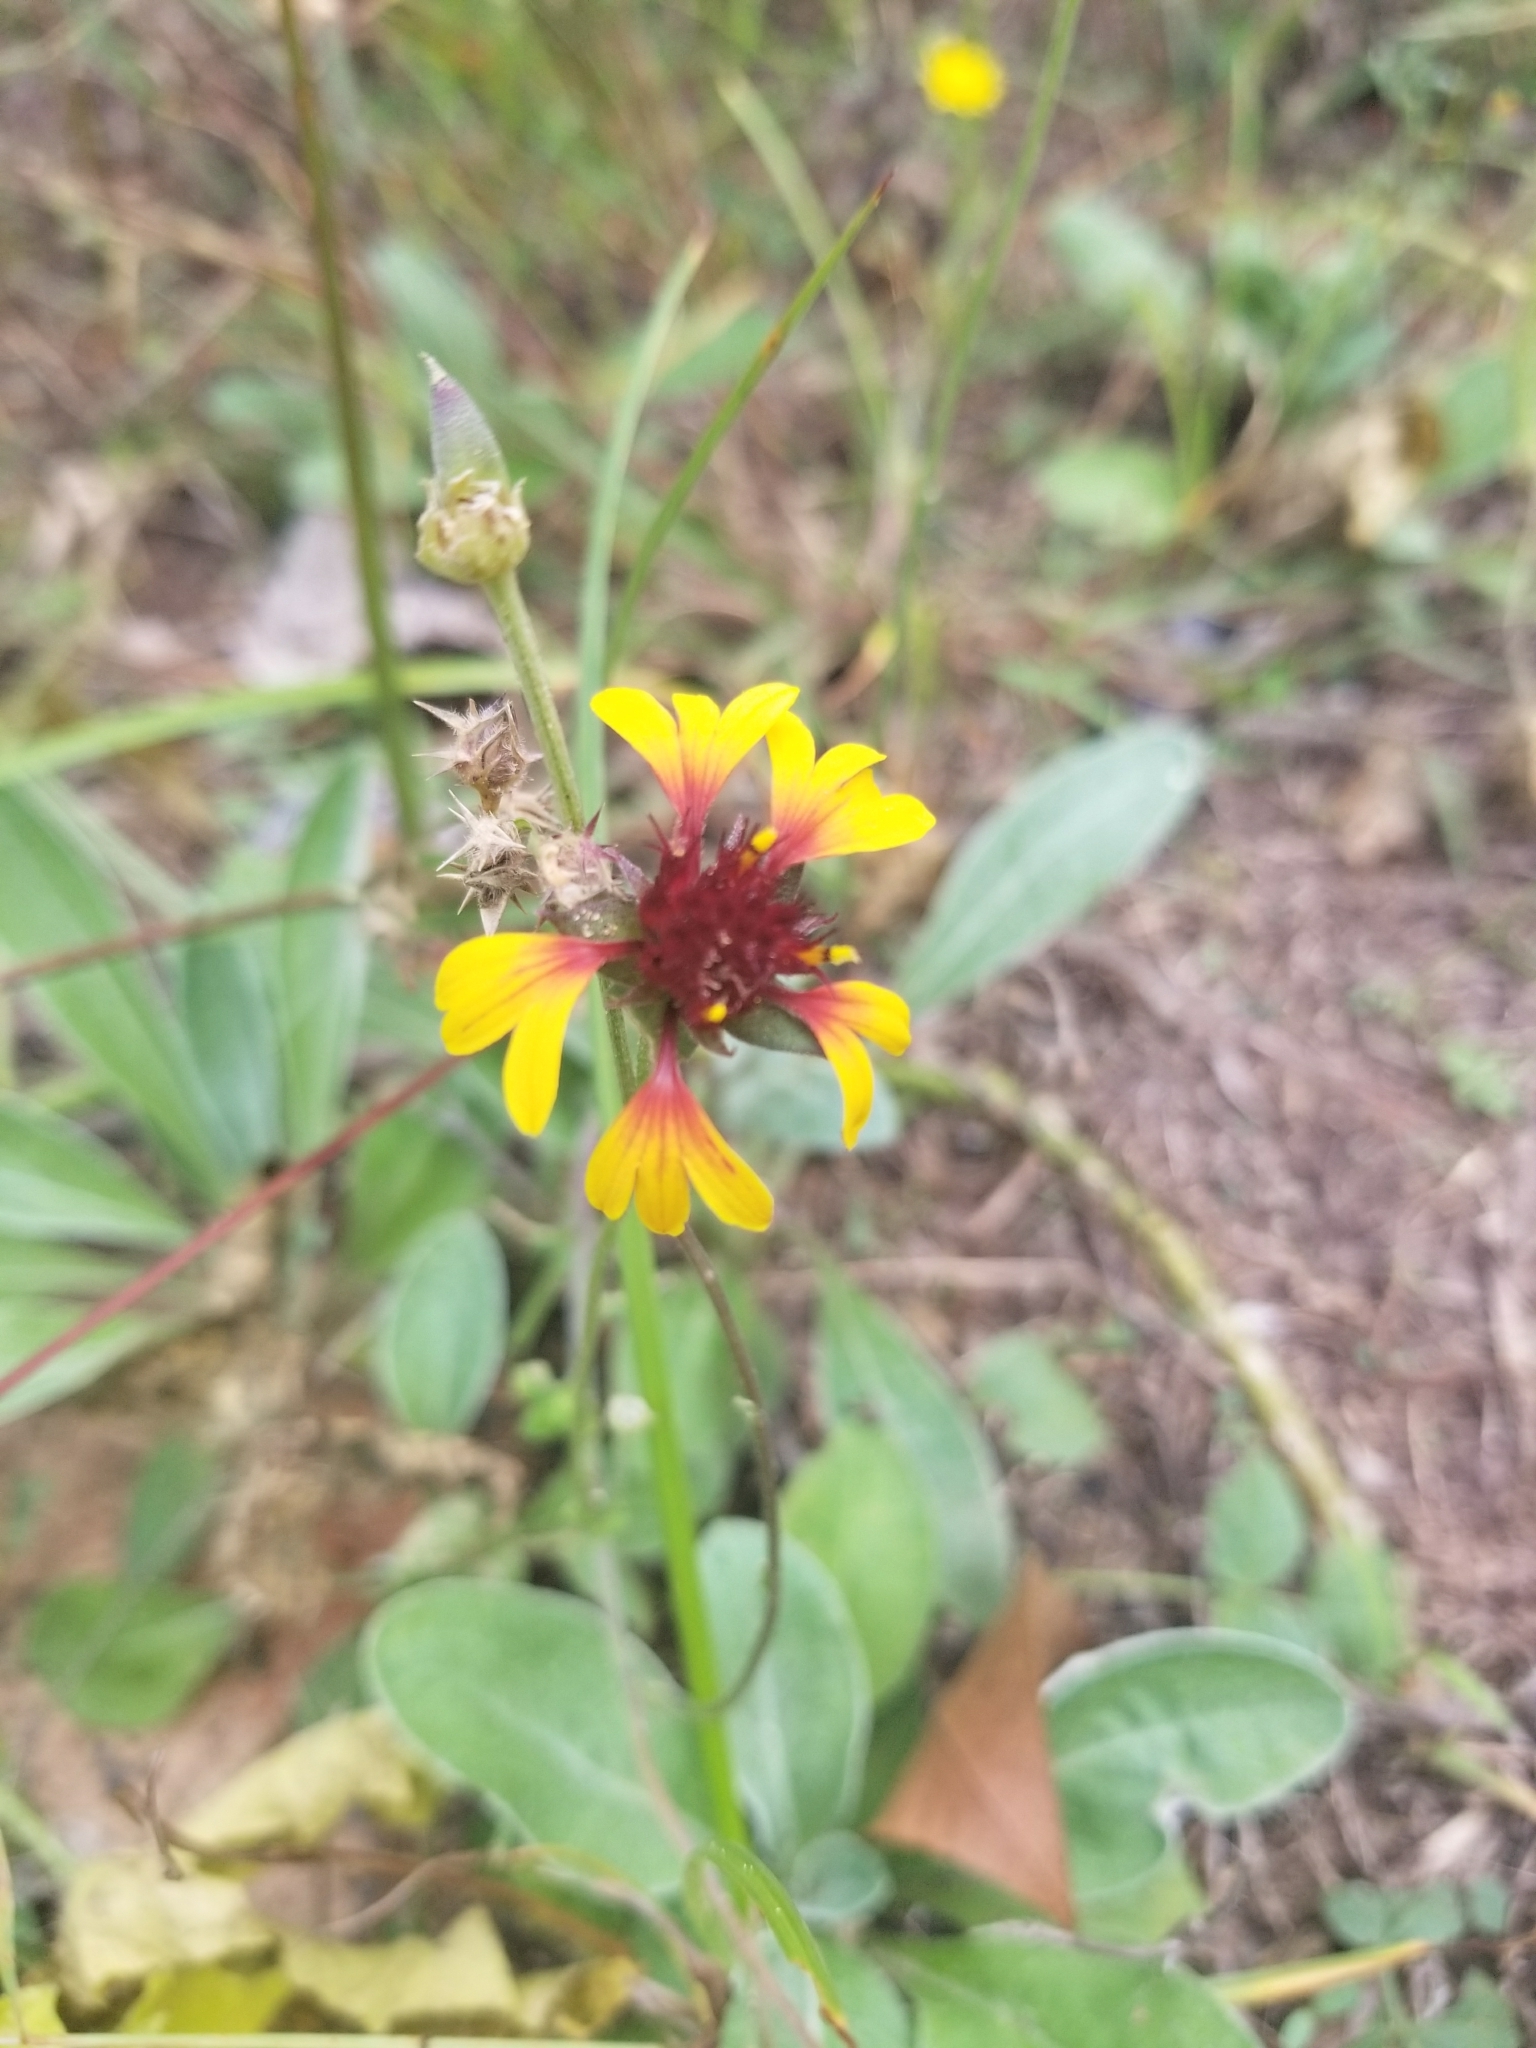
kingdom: Plantae
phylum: Tracheophyta
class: Magnoliopsida
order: Asterales
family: Asteraceae
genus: Gaillardia
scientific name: Gaillardia aestivalis
